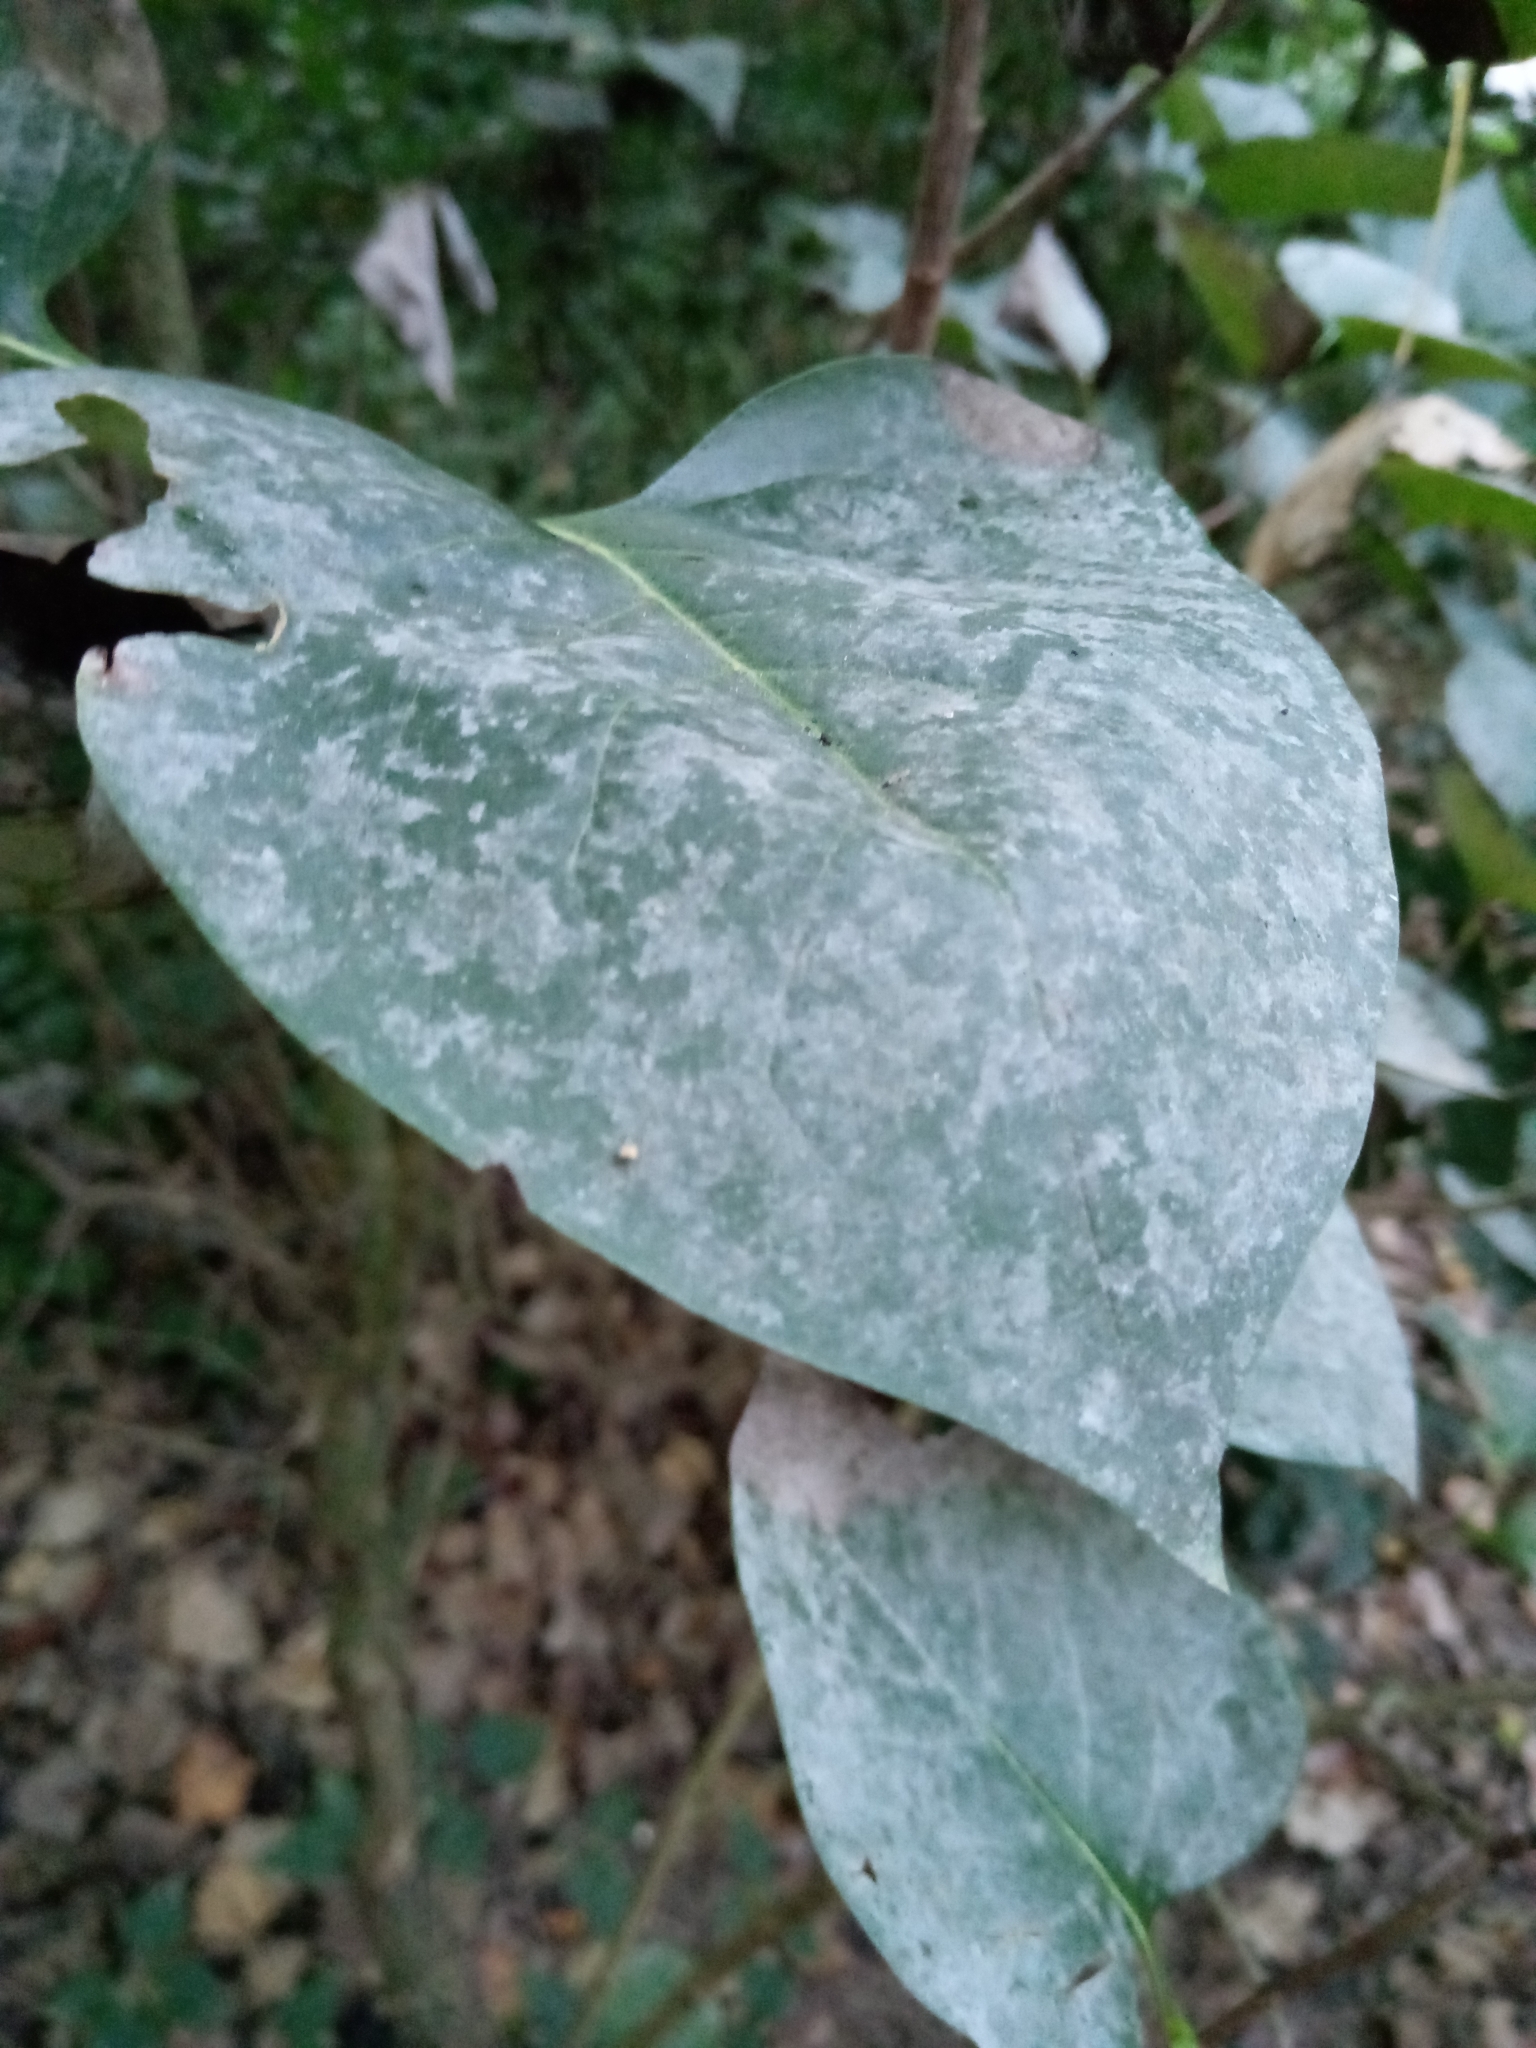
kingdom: Fungi
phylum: Ascomycota
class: Leotiomycetes
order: Helotiales
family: Erysiphaceae
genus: Erysiphe
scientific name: Erysiphe syringae
